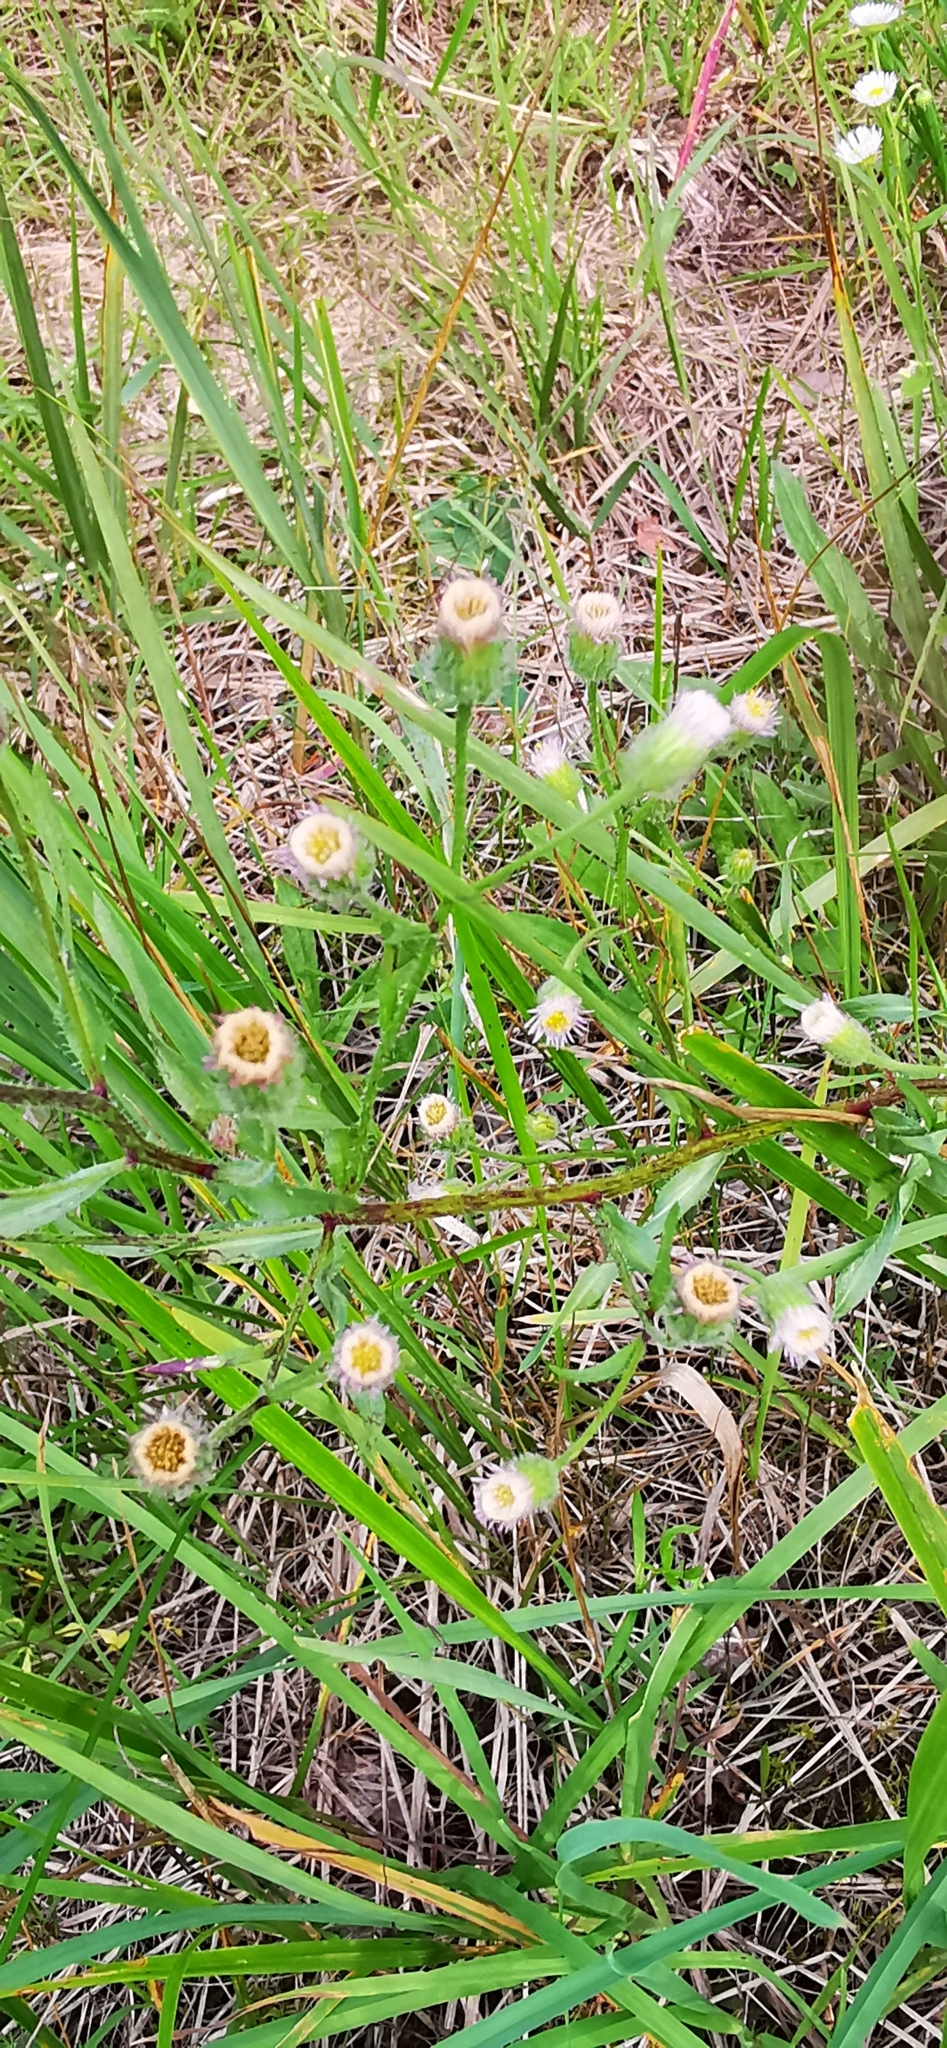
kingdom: Plantae
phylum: Tracheophyta
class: Magnoliopsida
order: Asterales
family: Asteraceae
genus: Erigeron
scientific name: Erigeron acris
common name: Blue fleabane
